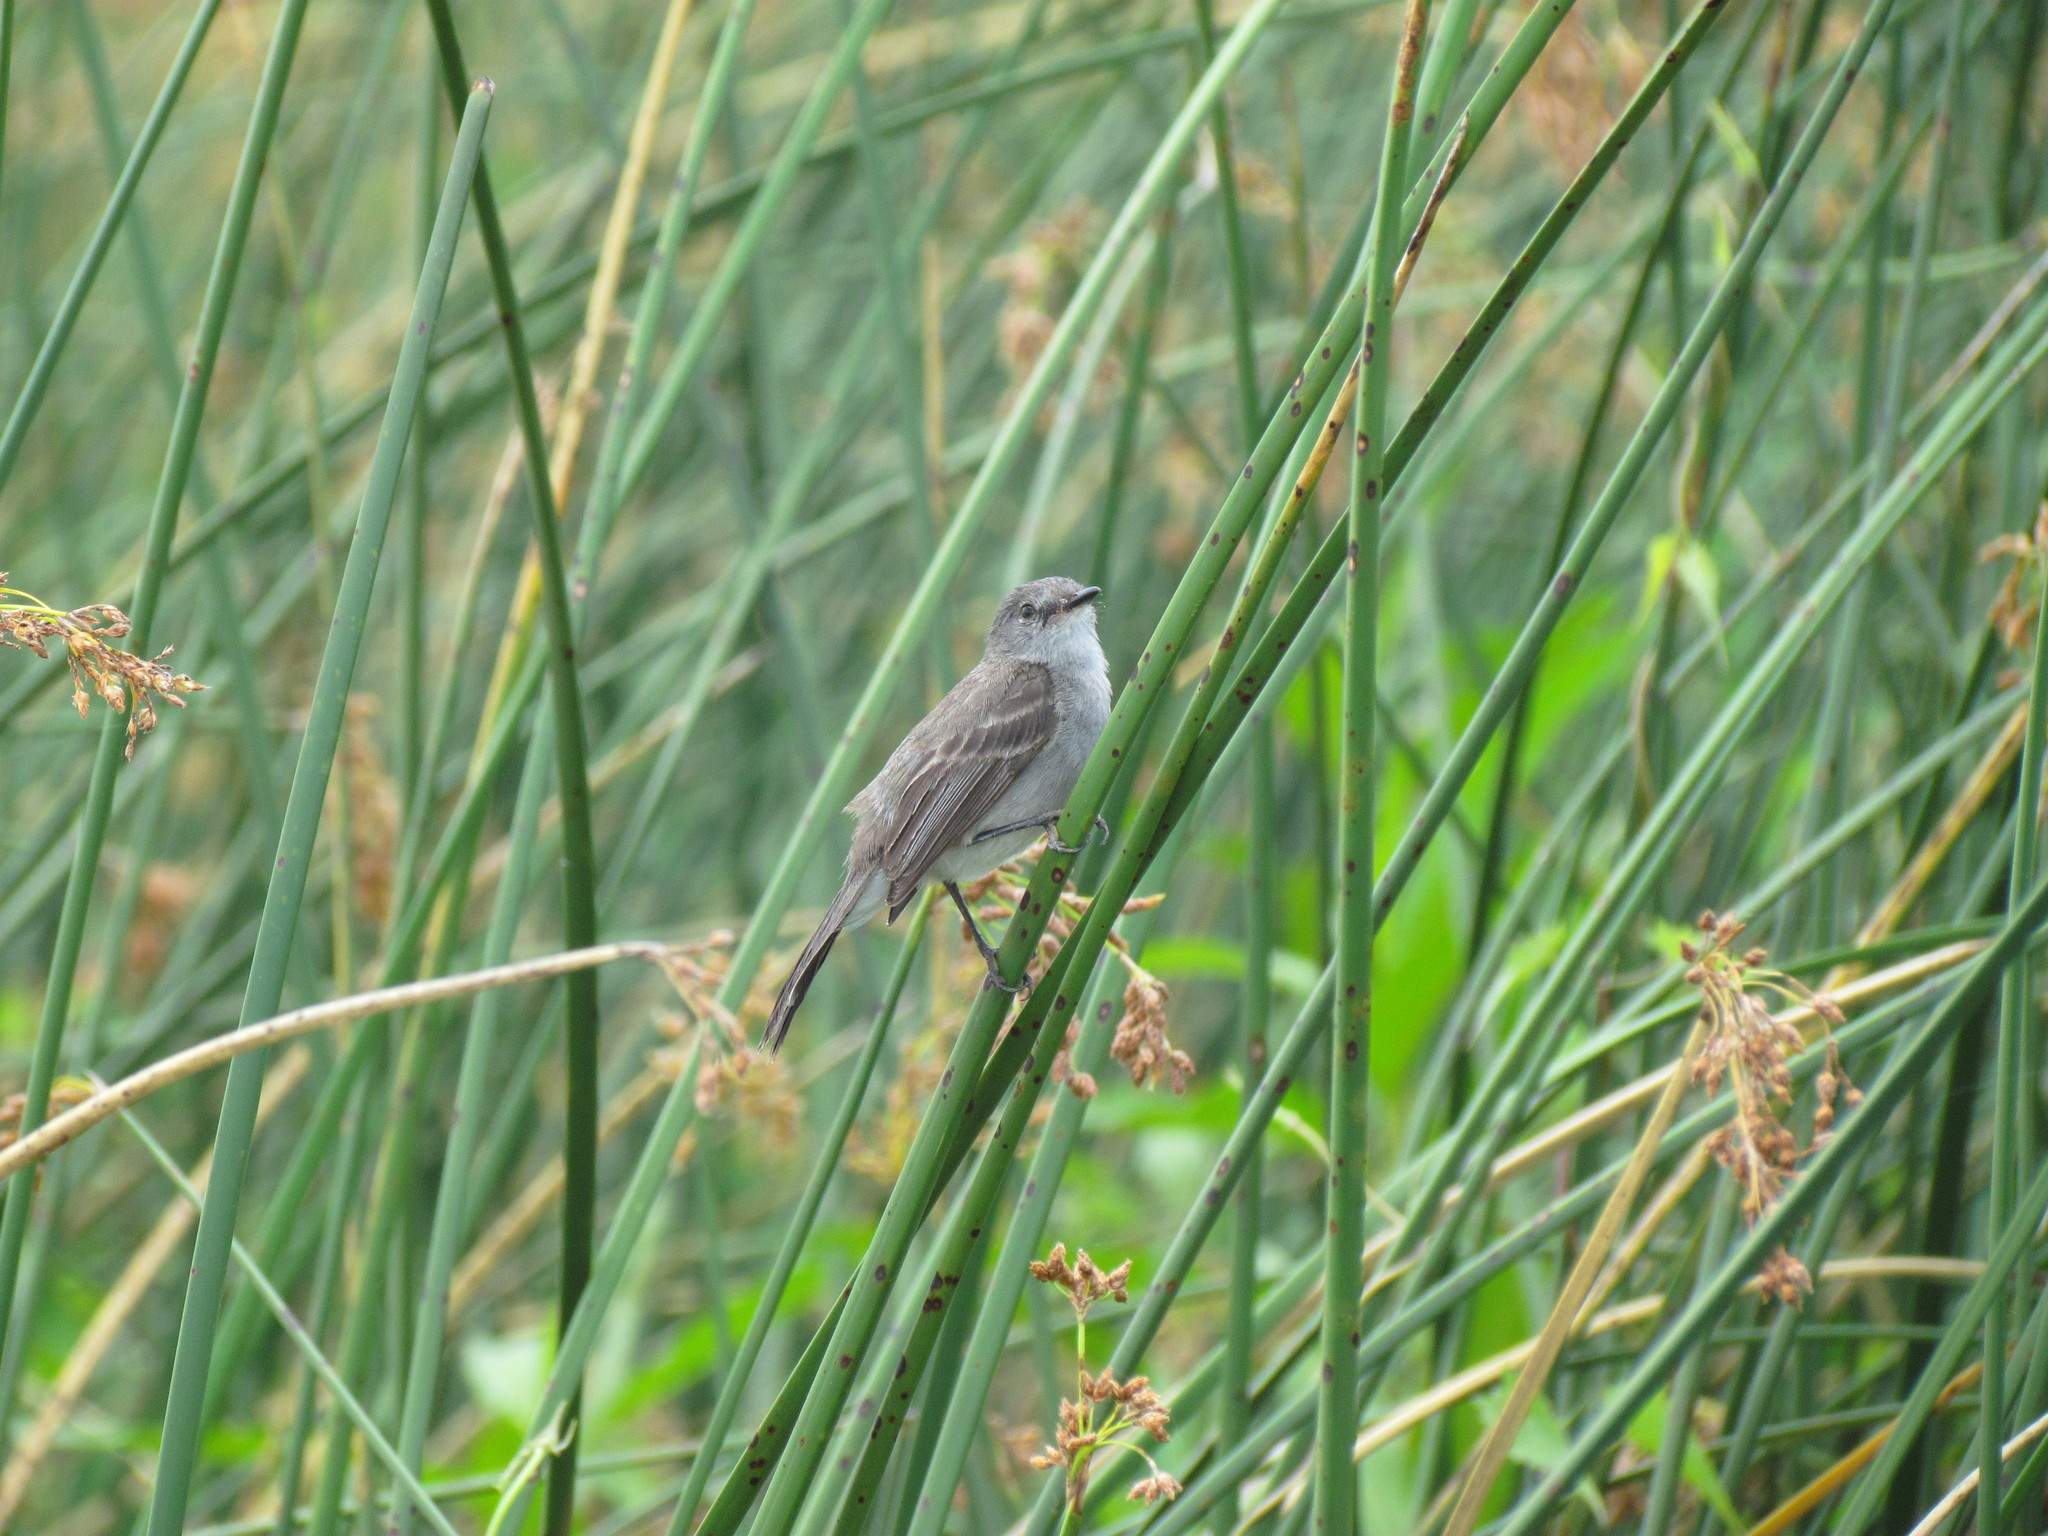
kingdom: Animalia
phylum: Chordata
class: Aves
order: Passeriformes
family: Tyrannidae
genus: Serpophaga
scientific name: Serpophaga nigricans
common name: Sooty tyrannulet
